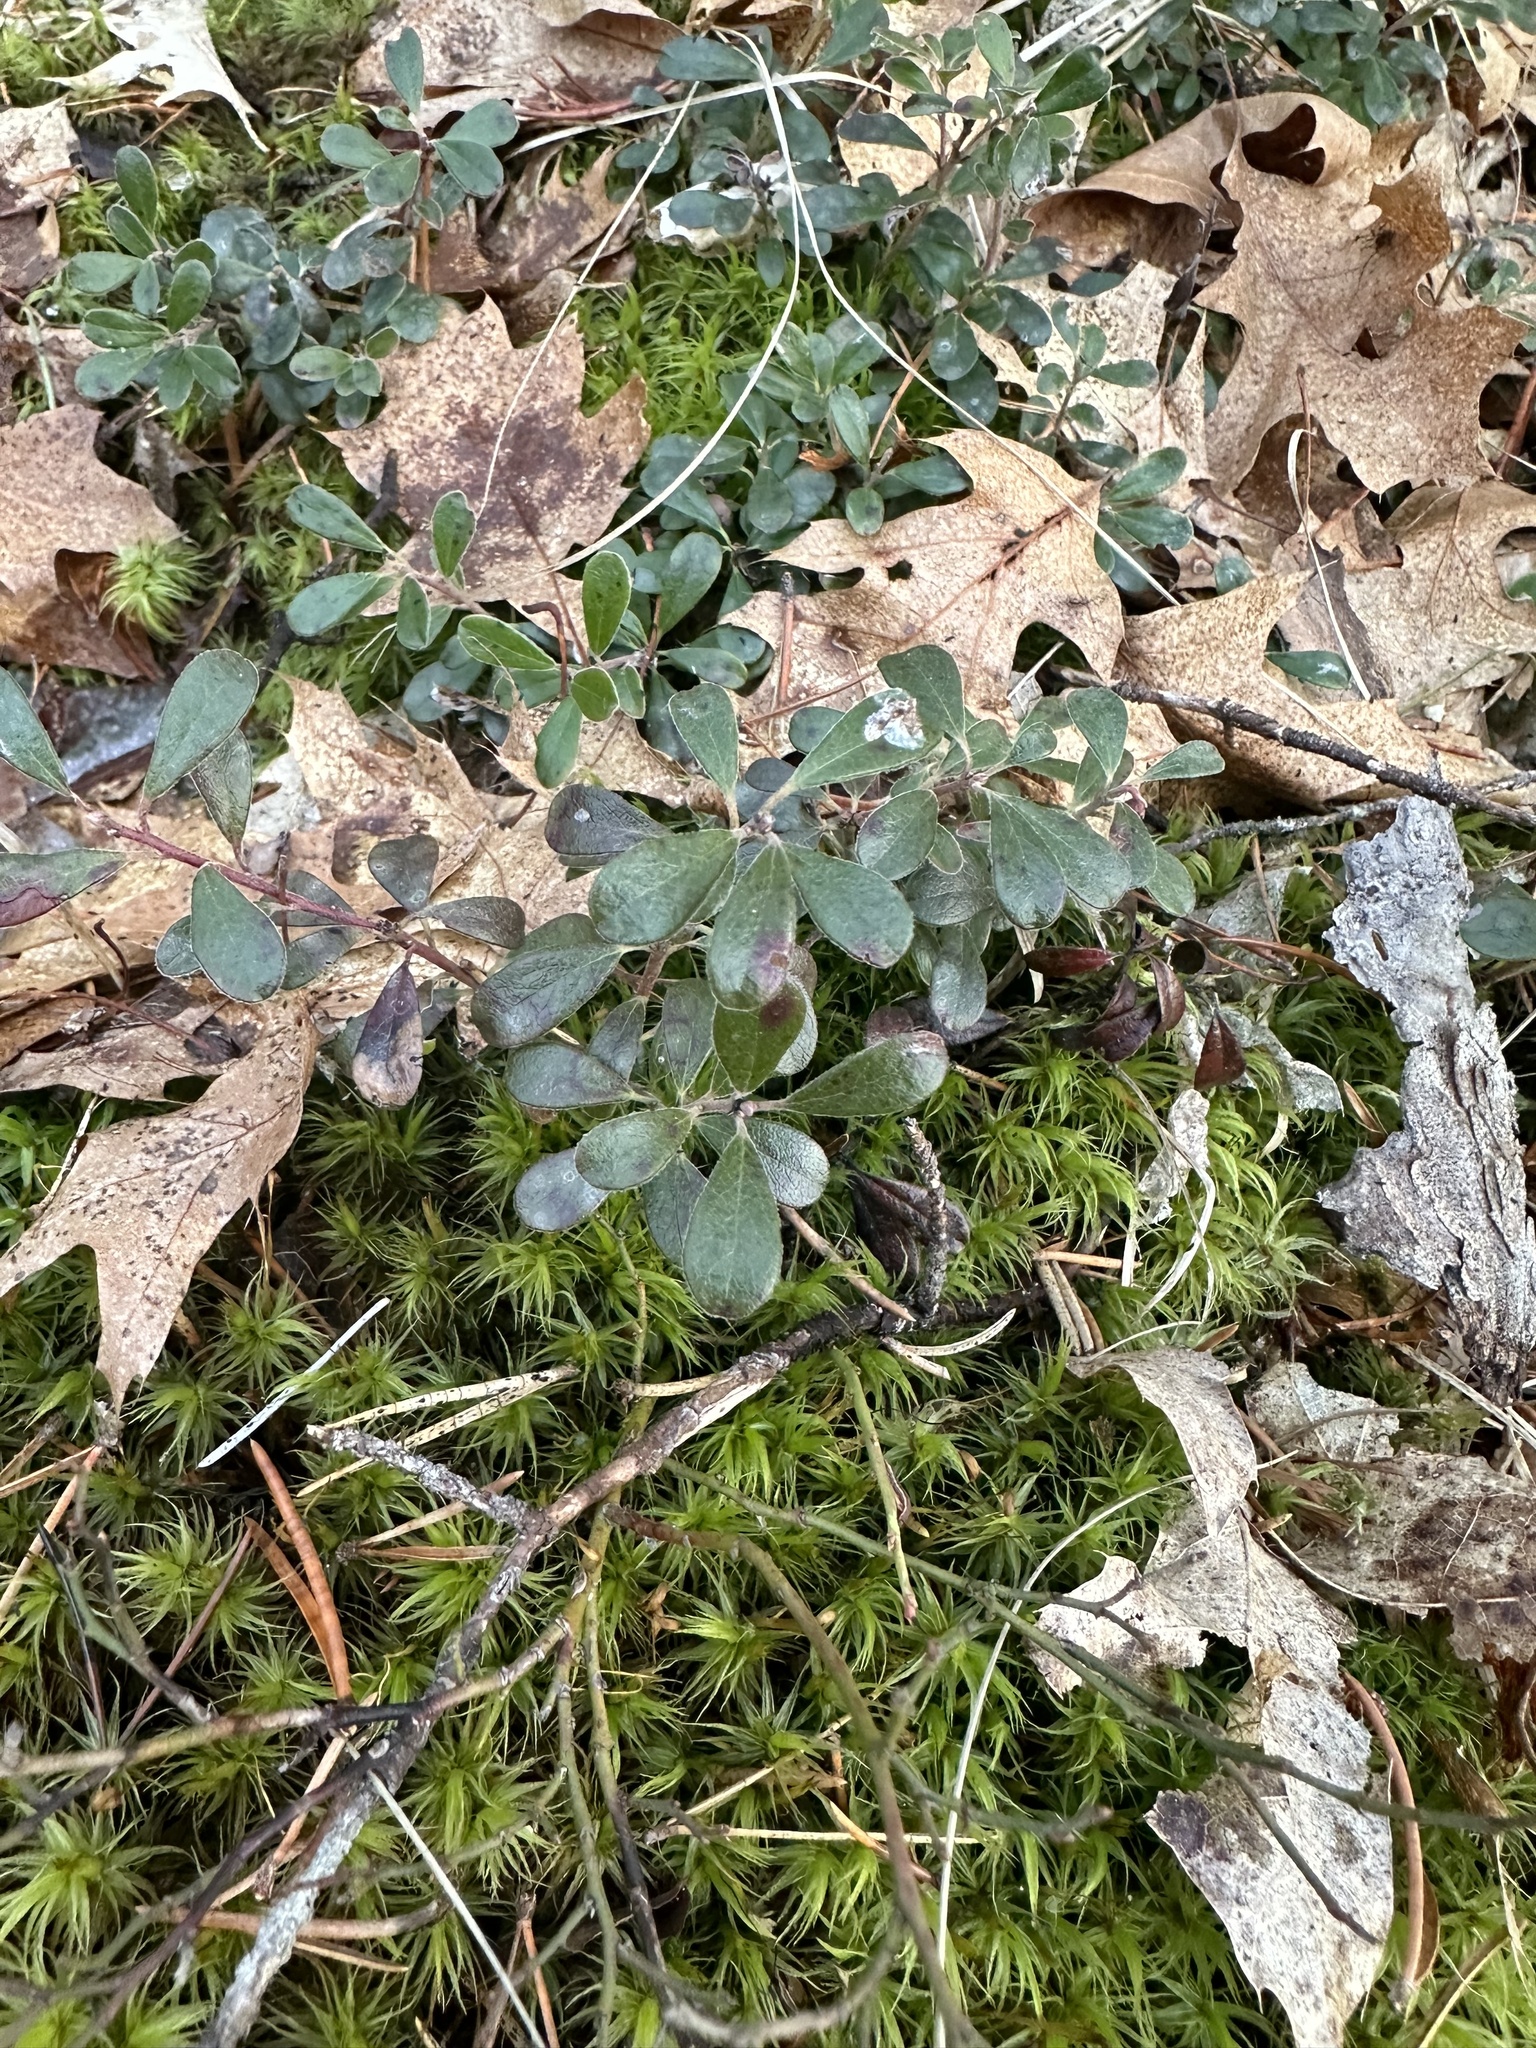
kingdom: Plantae
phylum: Tracheophyta
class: Magnoliopsida
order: Ericales
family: Ericaceae
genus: Arctostaphylos
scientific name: Arctostaphylos uva-ursi
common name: Bearberry
